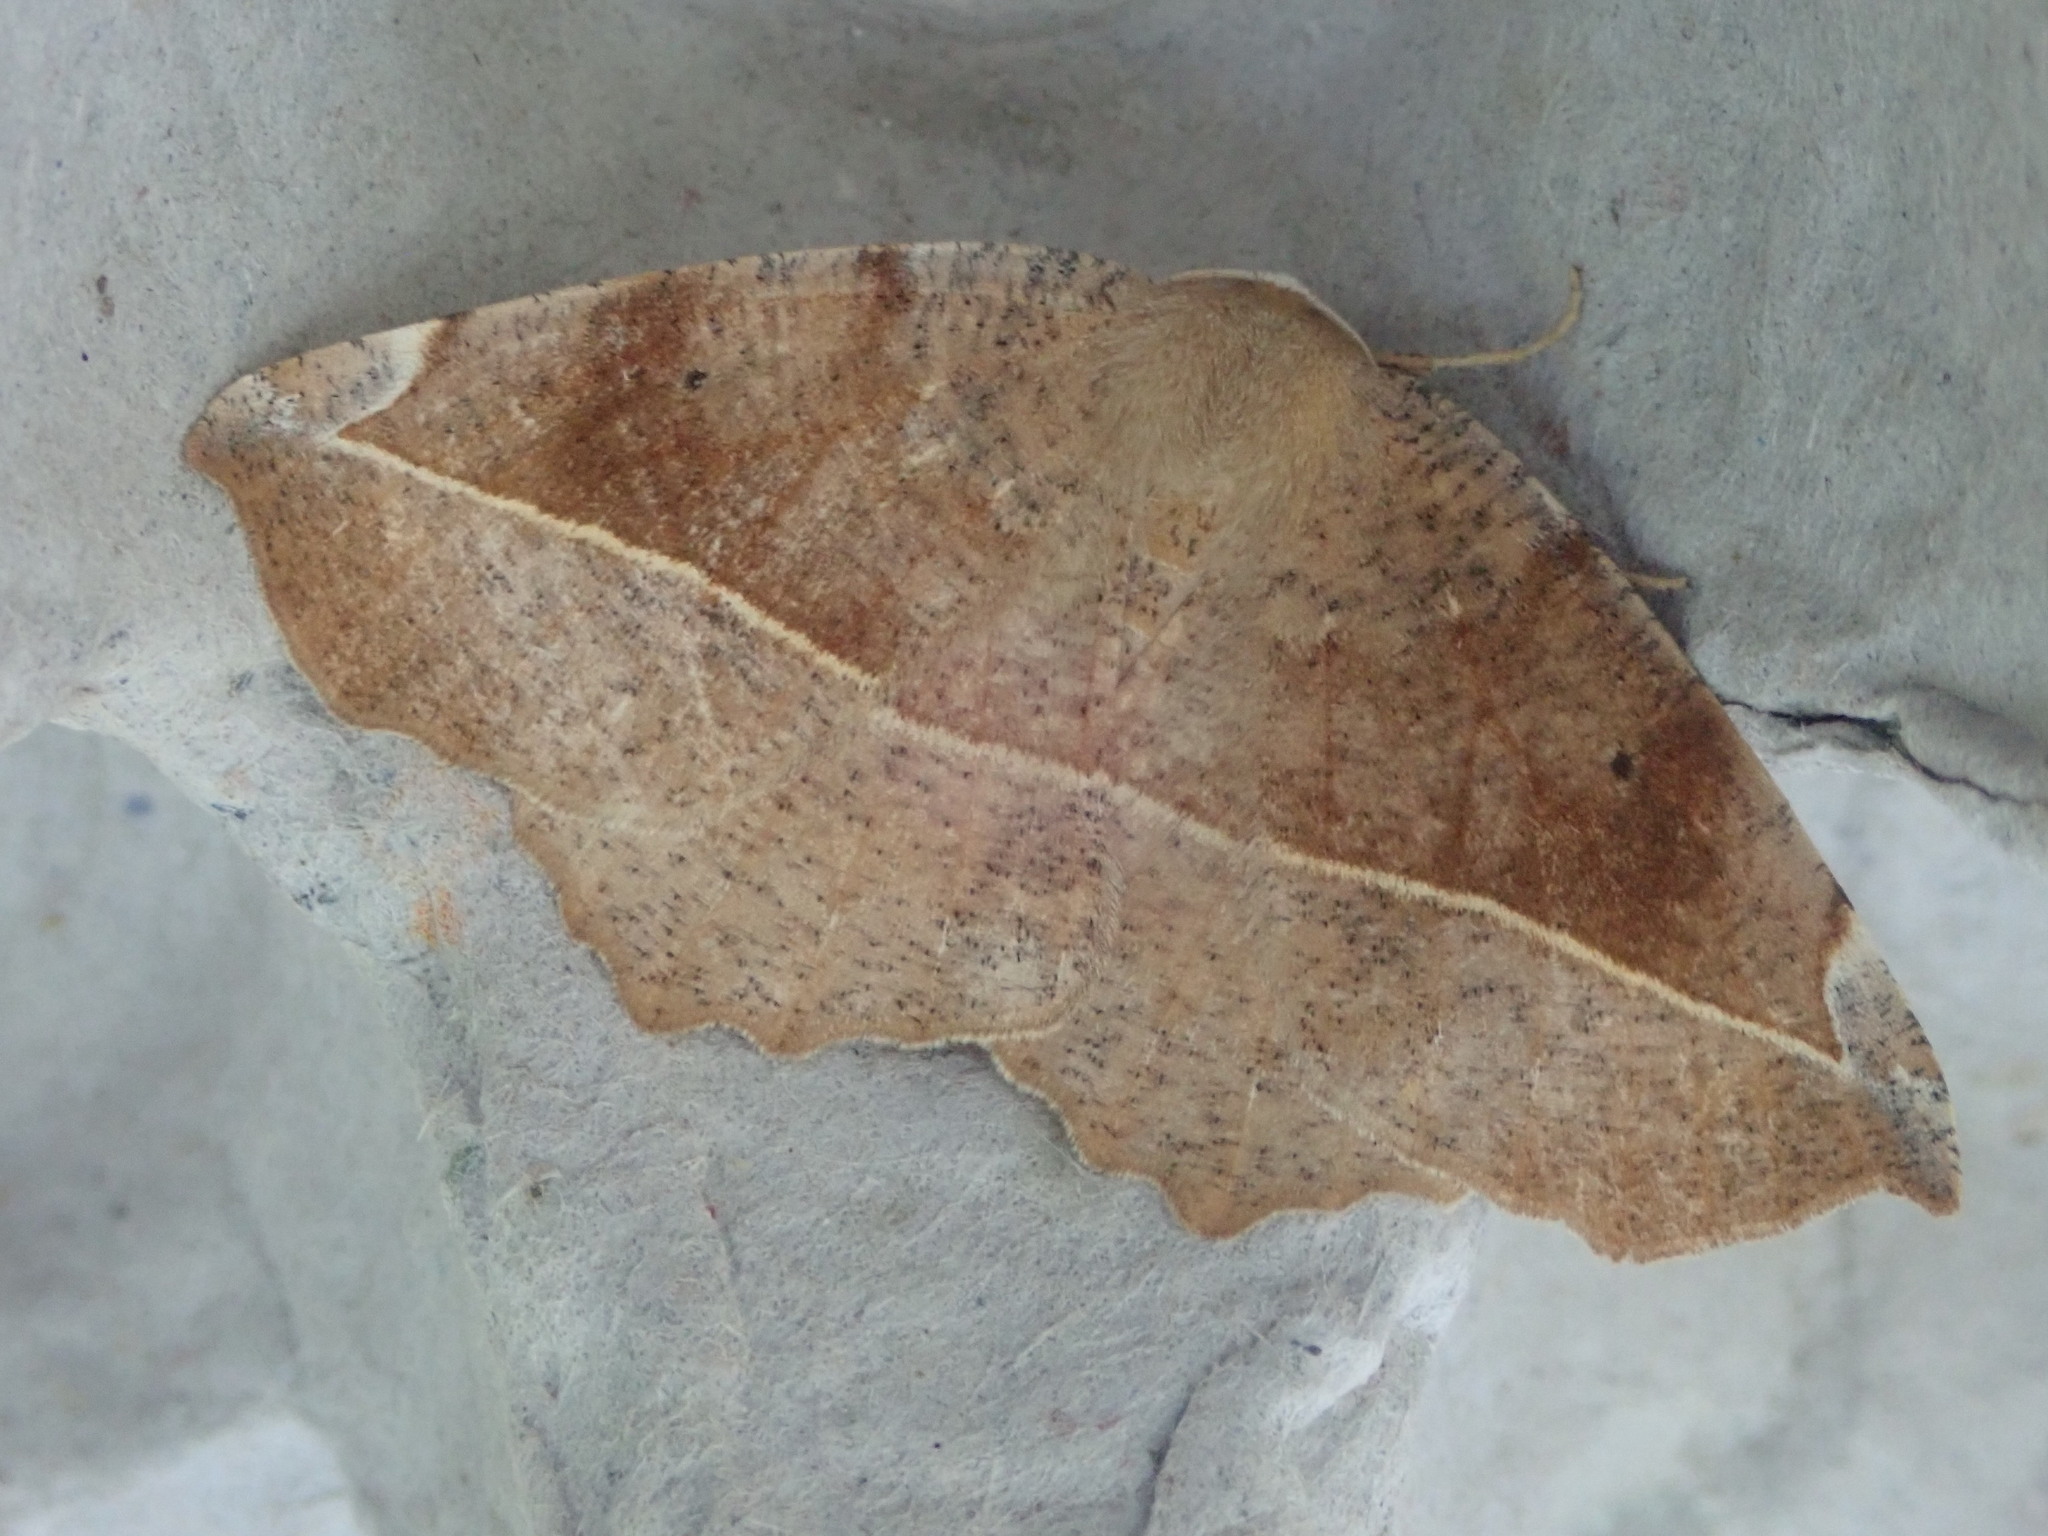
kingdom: Animalia
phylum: Arthropoda
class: Insecta
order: Lepidoptera
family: Geometridae
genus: Eutrapela
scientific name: Eutrapela clemataria
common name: Curved-toothed geometer
